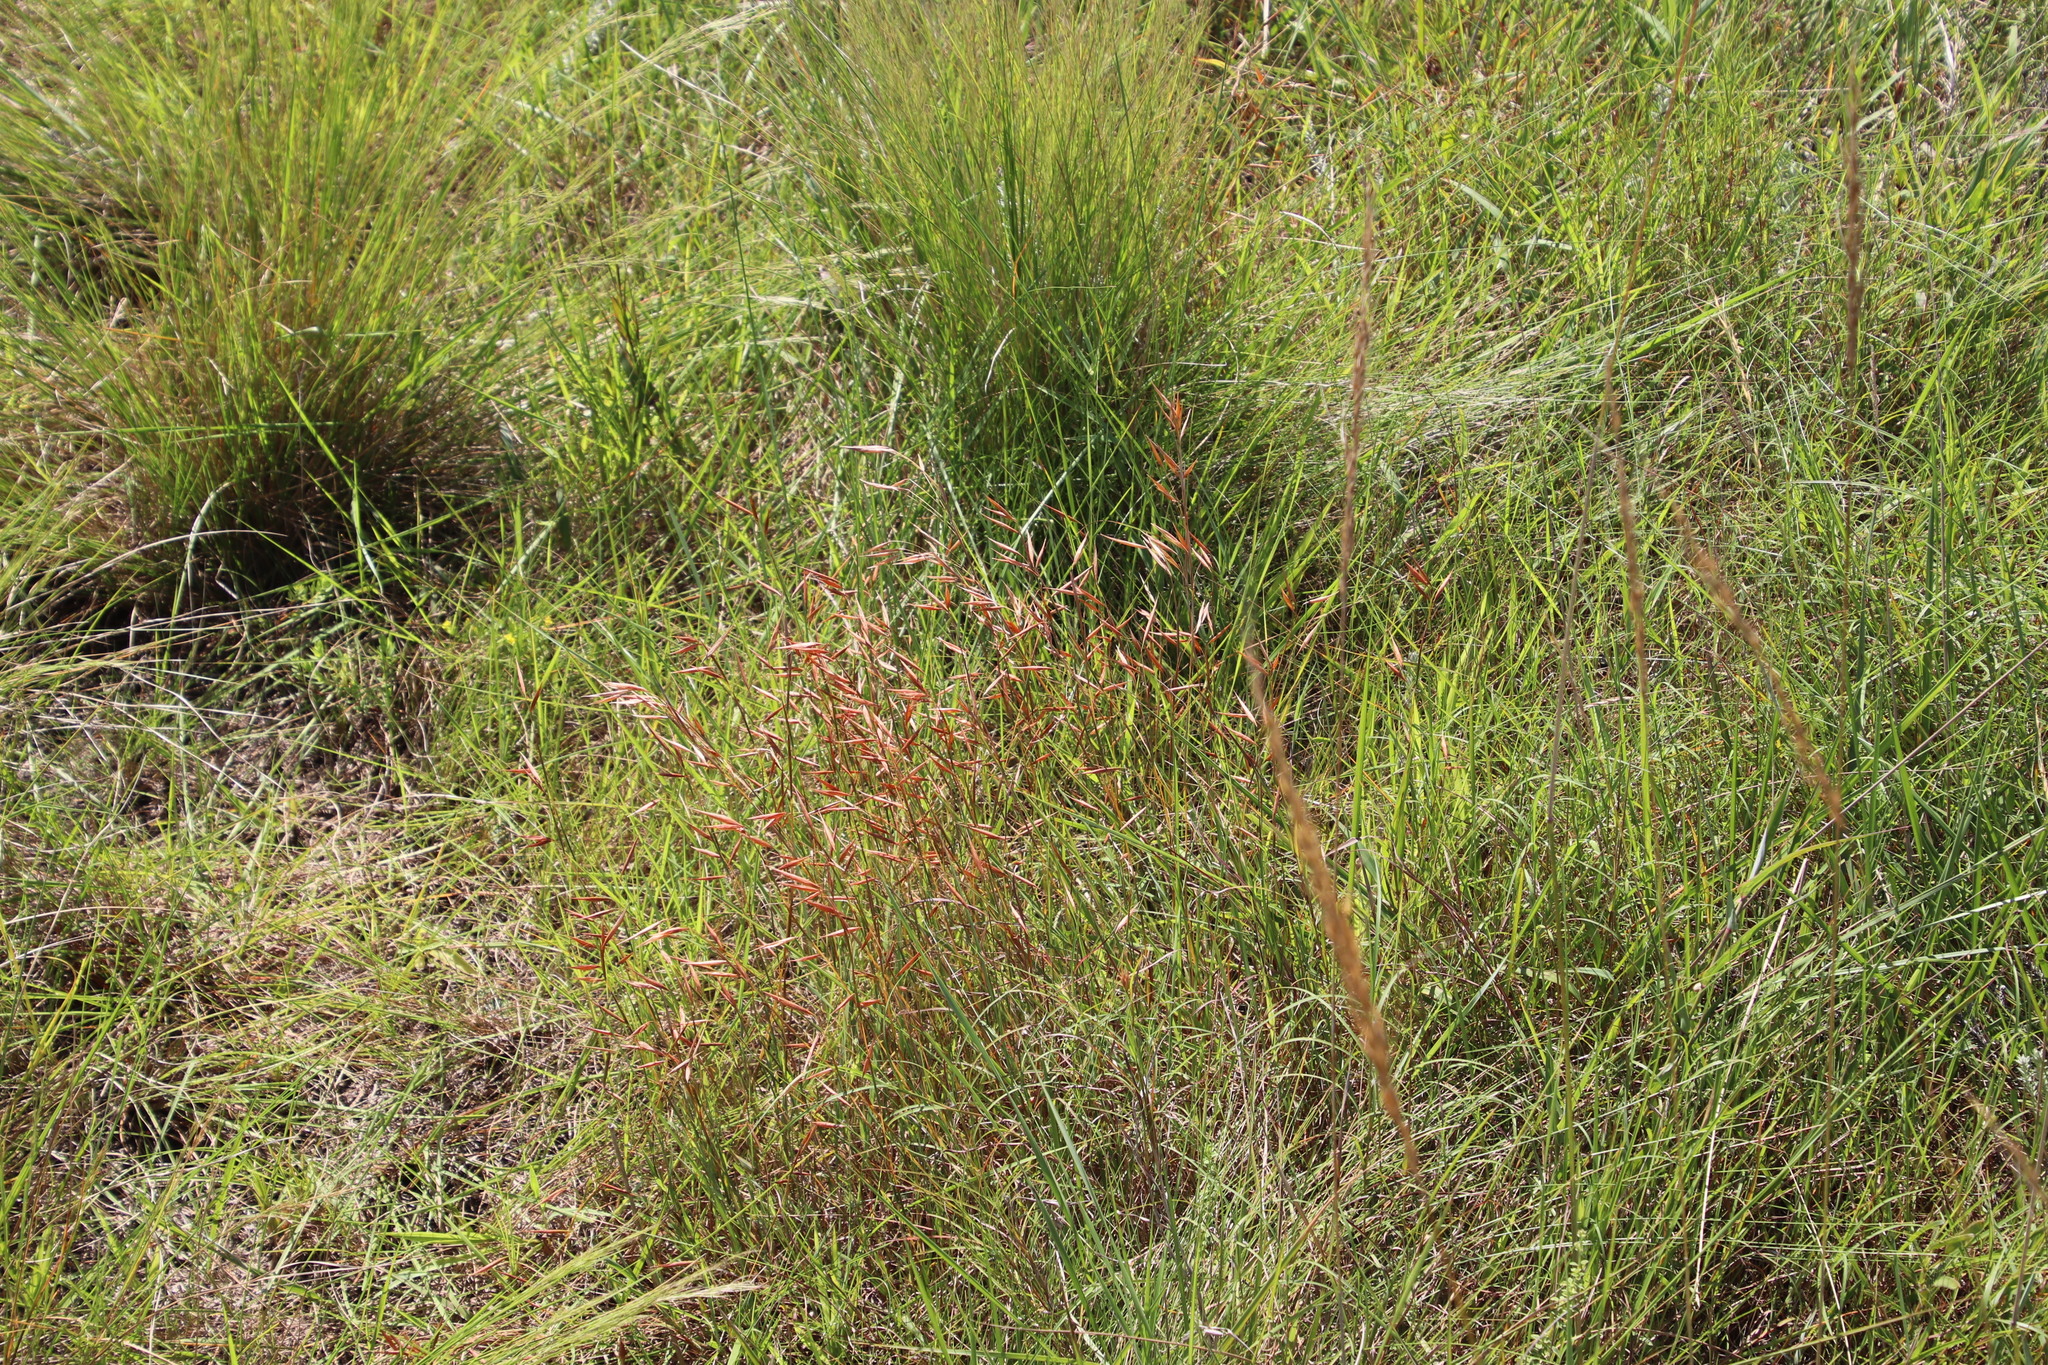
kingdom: Plantae
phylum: Tracheophyta
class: Liliopsida
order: Poales
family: Poaceae
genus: Monocymbium
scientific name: Monocymbium ceresiiforme
